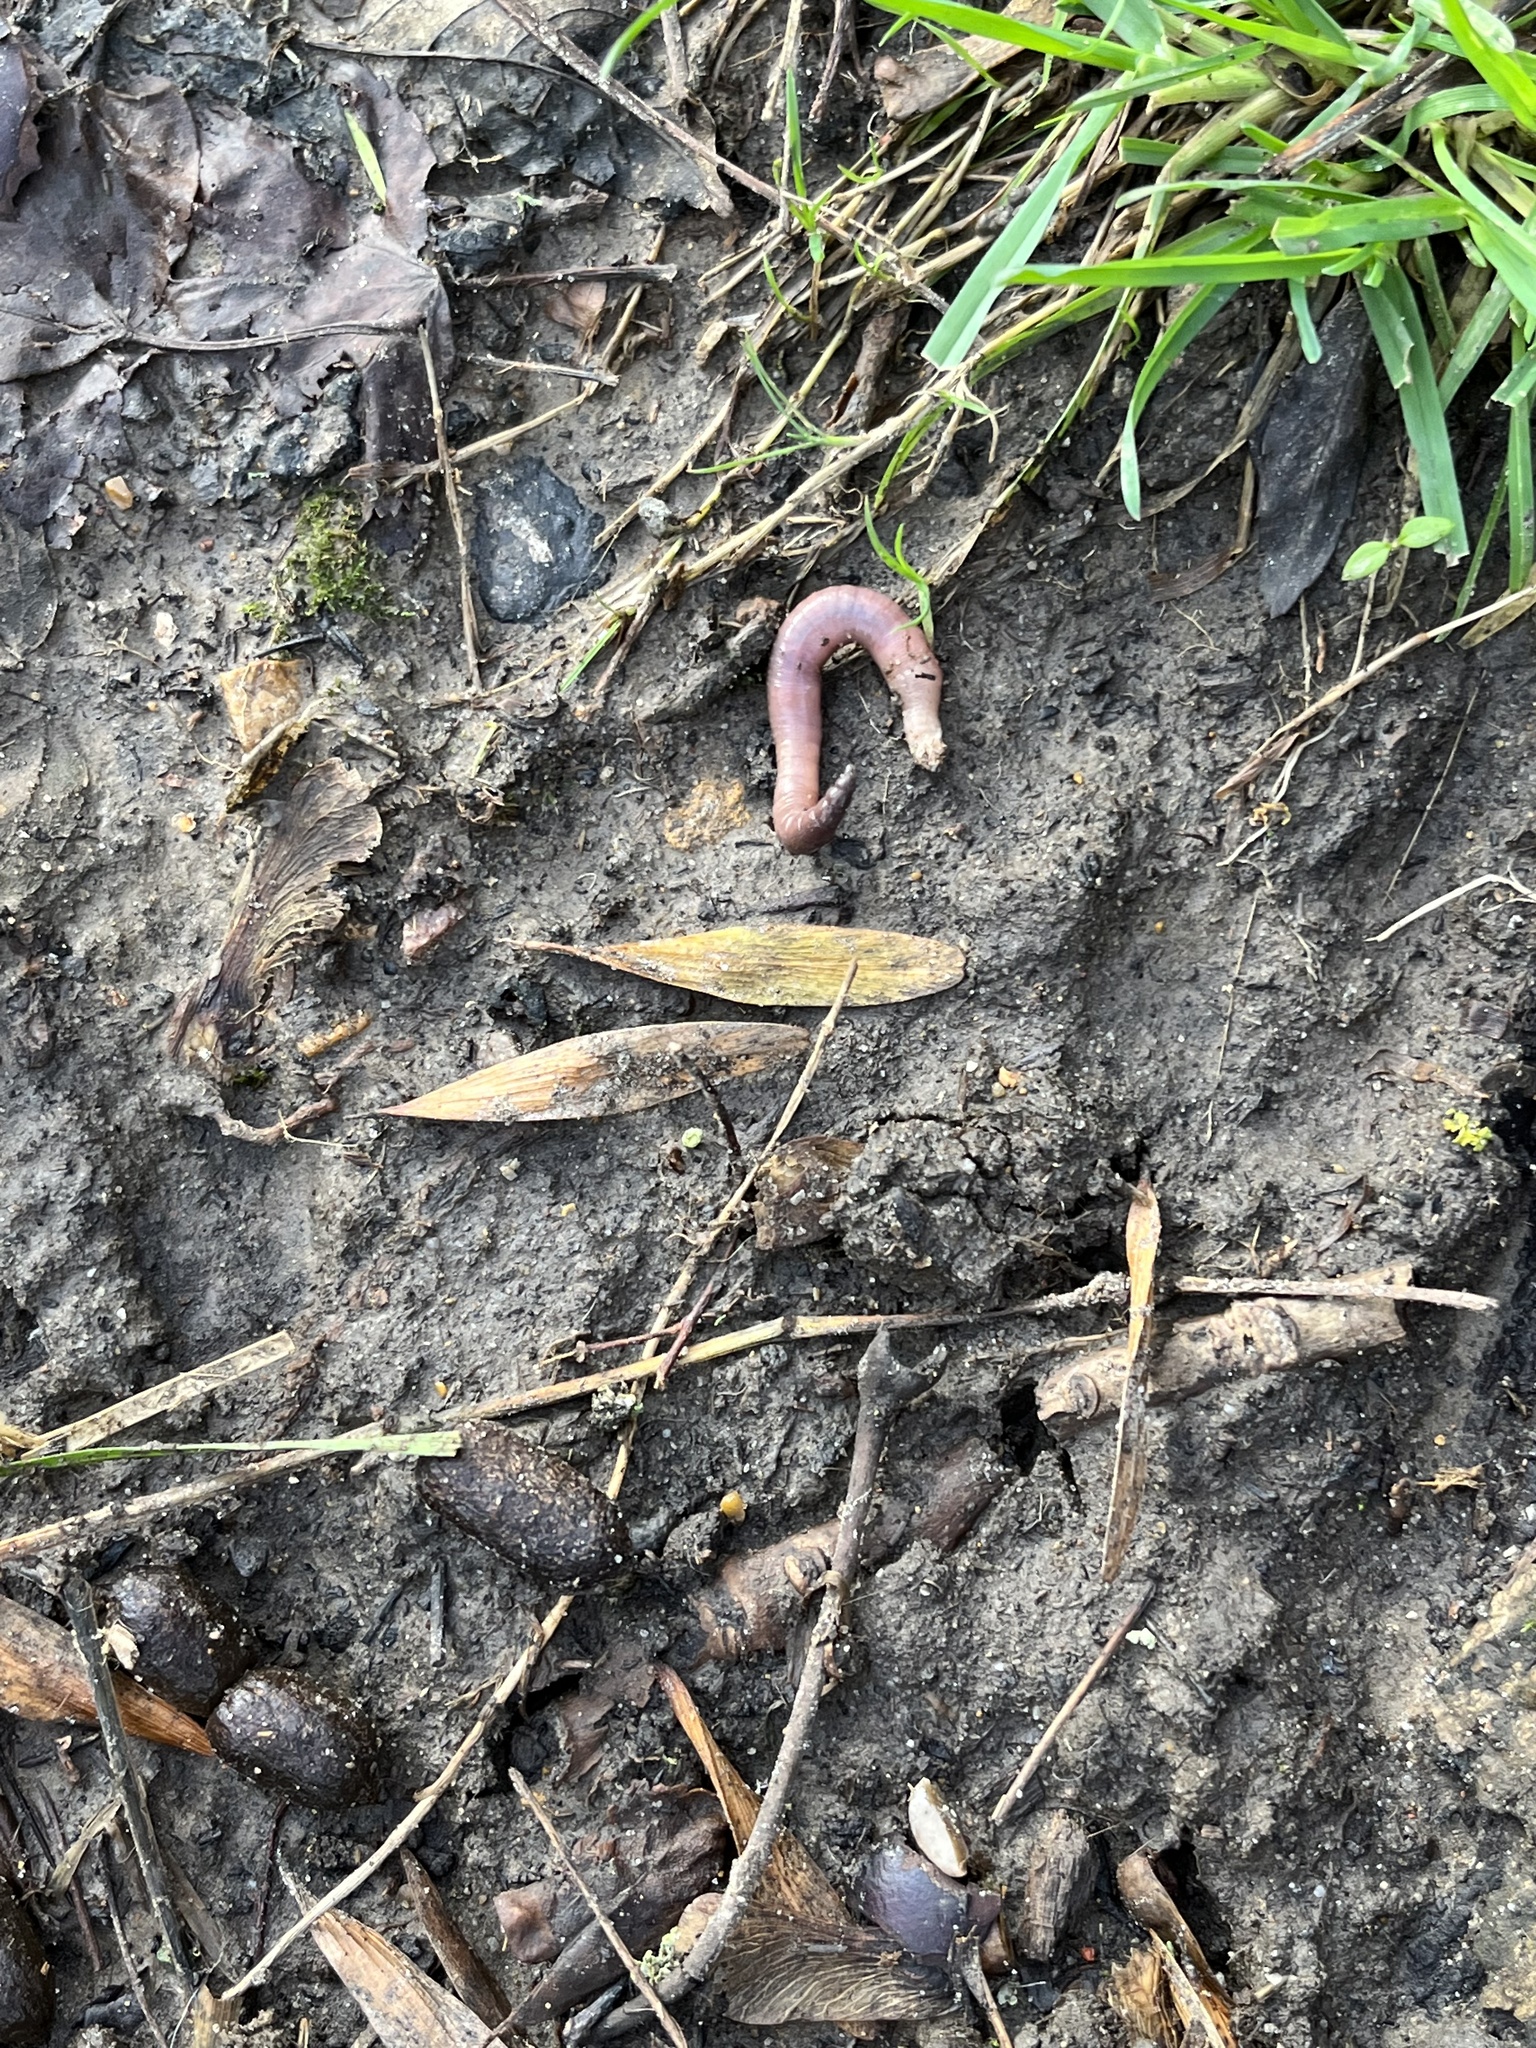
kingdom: Animalia
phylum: Annelida
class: Clitellata
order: Crassiclitellata
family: Lumbricidae
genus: Lumbricus
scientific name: Lumbricus terrestris
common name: Common earthworm
